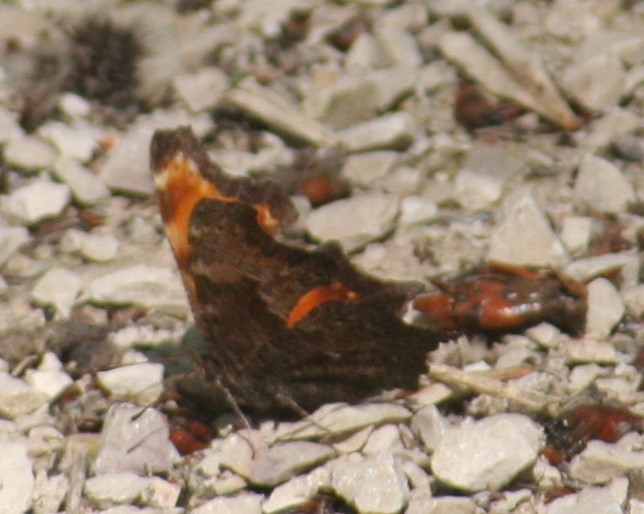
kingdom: Animalia
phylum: Arthropoda
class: Insecta
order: Lepidoptera
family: Nymphalidae
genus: Polygonia
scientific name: Polygonia progne
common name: Gray comma
